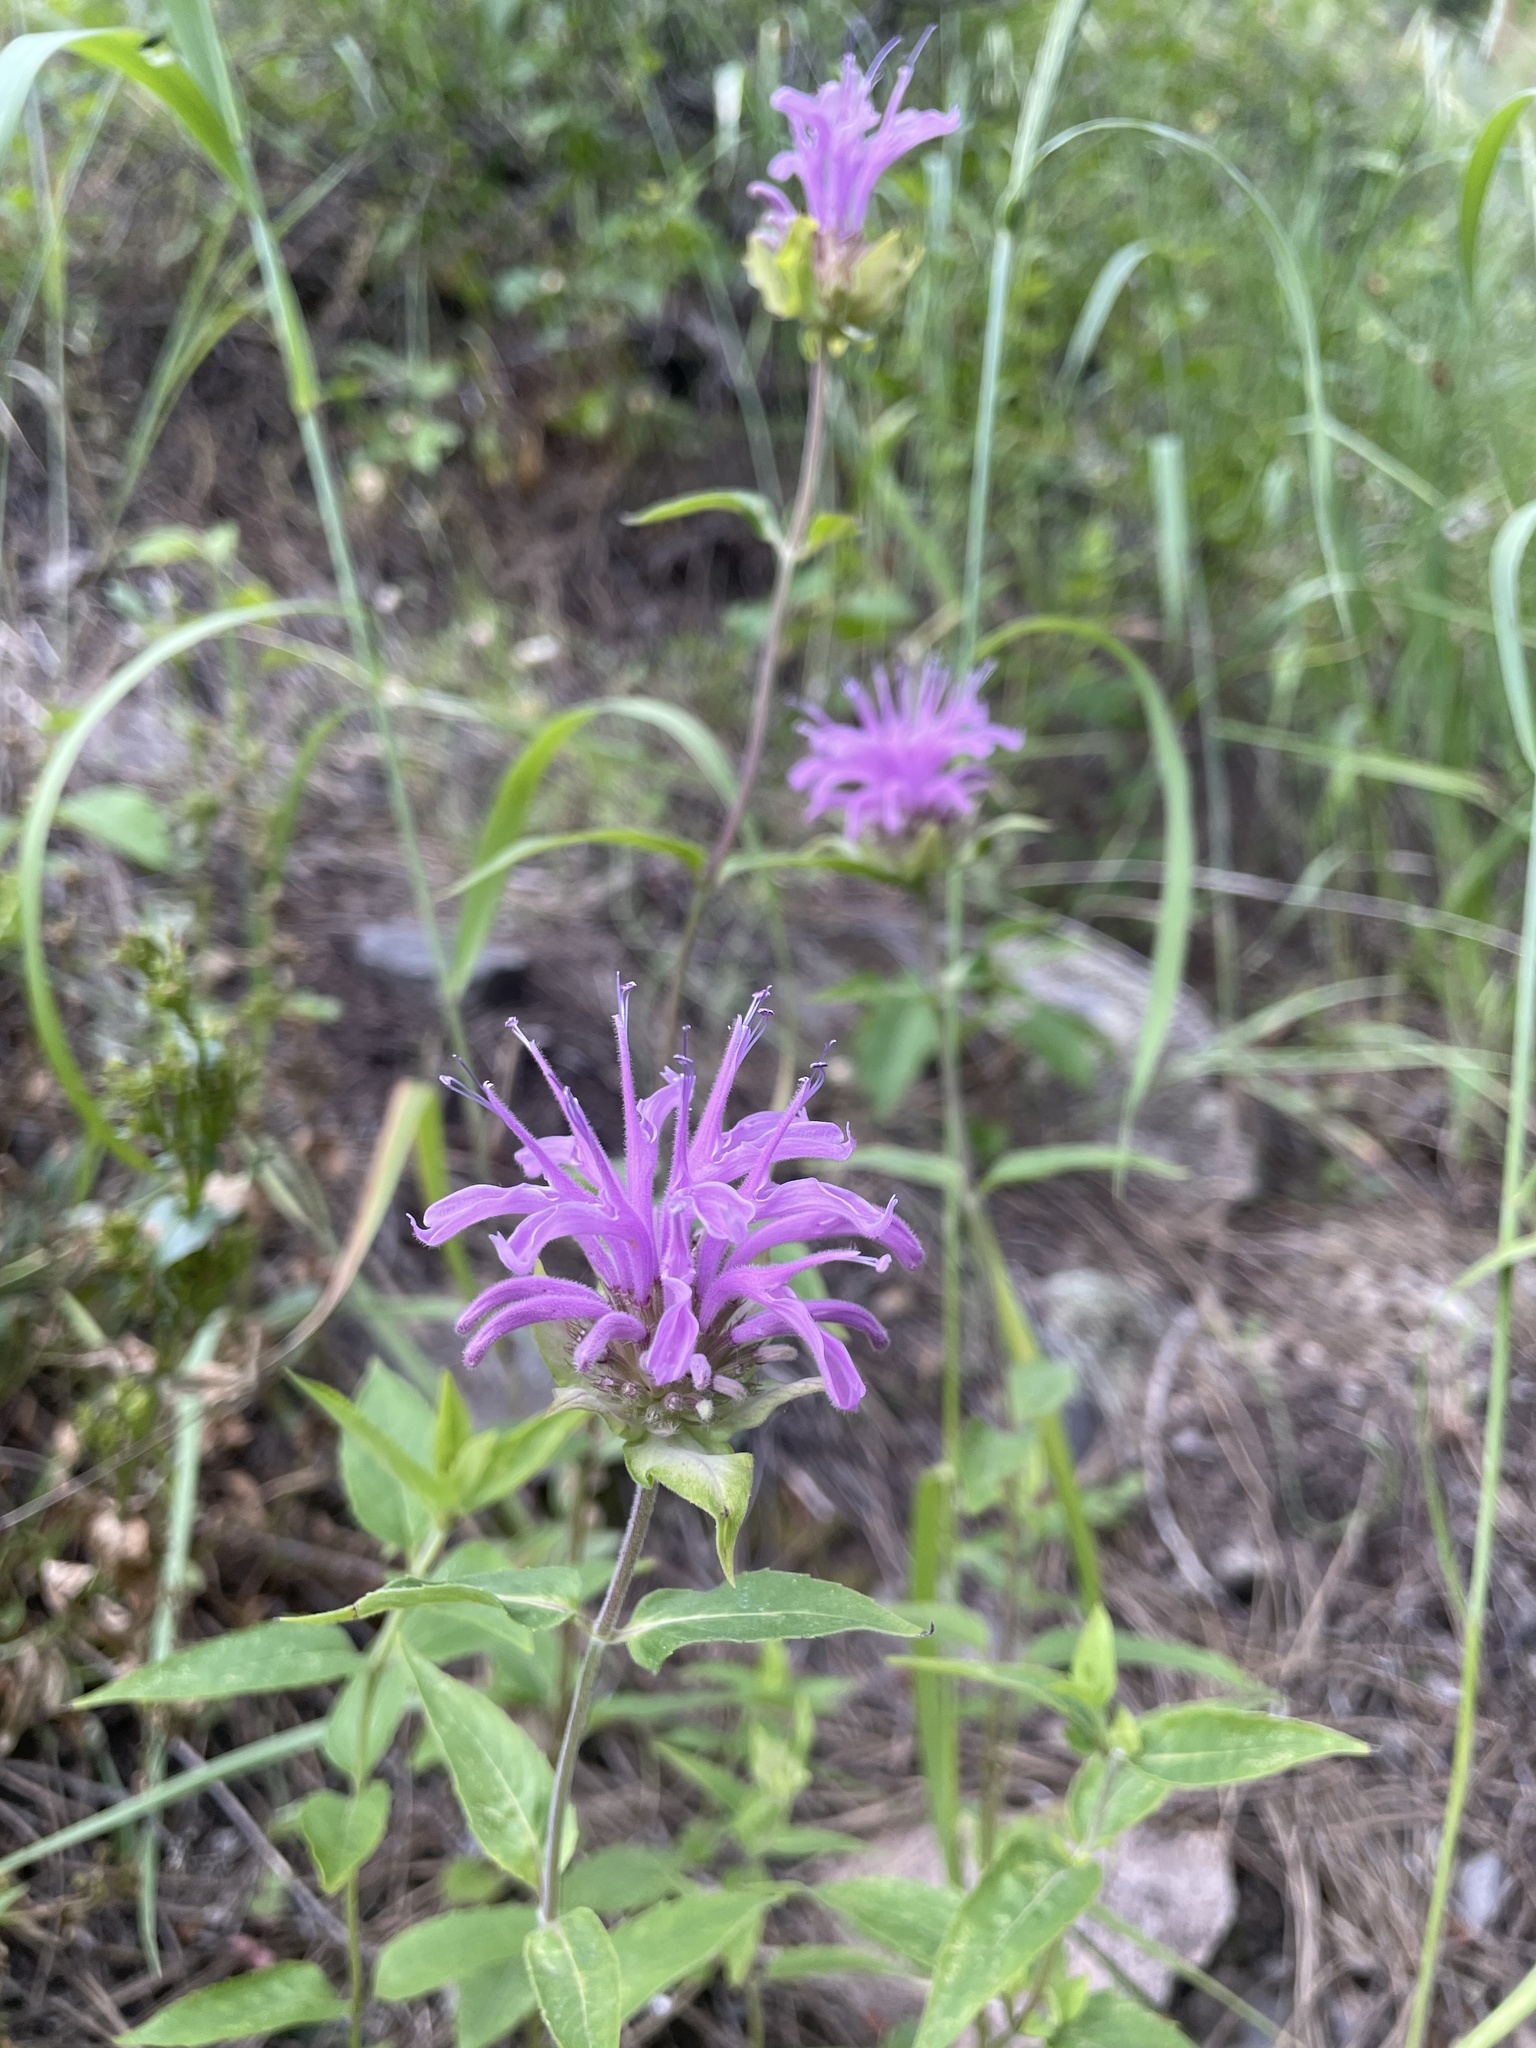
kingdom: Plantae
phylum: Tracheophyta
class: Magnoliopsida
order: Lamiales
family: Lamiaceae
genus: Monarda
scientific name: Monarda fistulosa
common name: Purple beebalm
